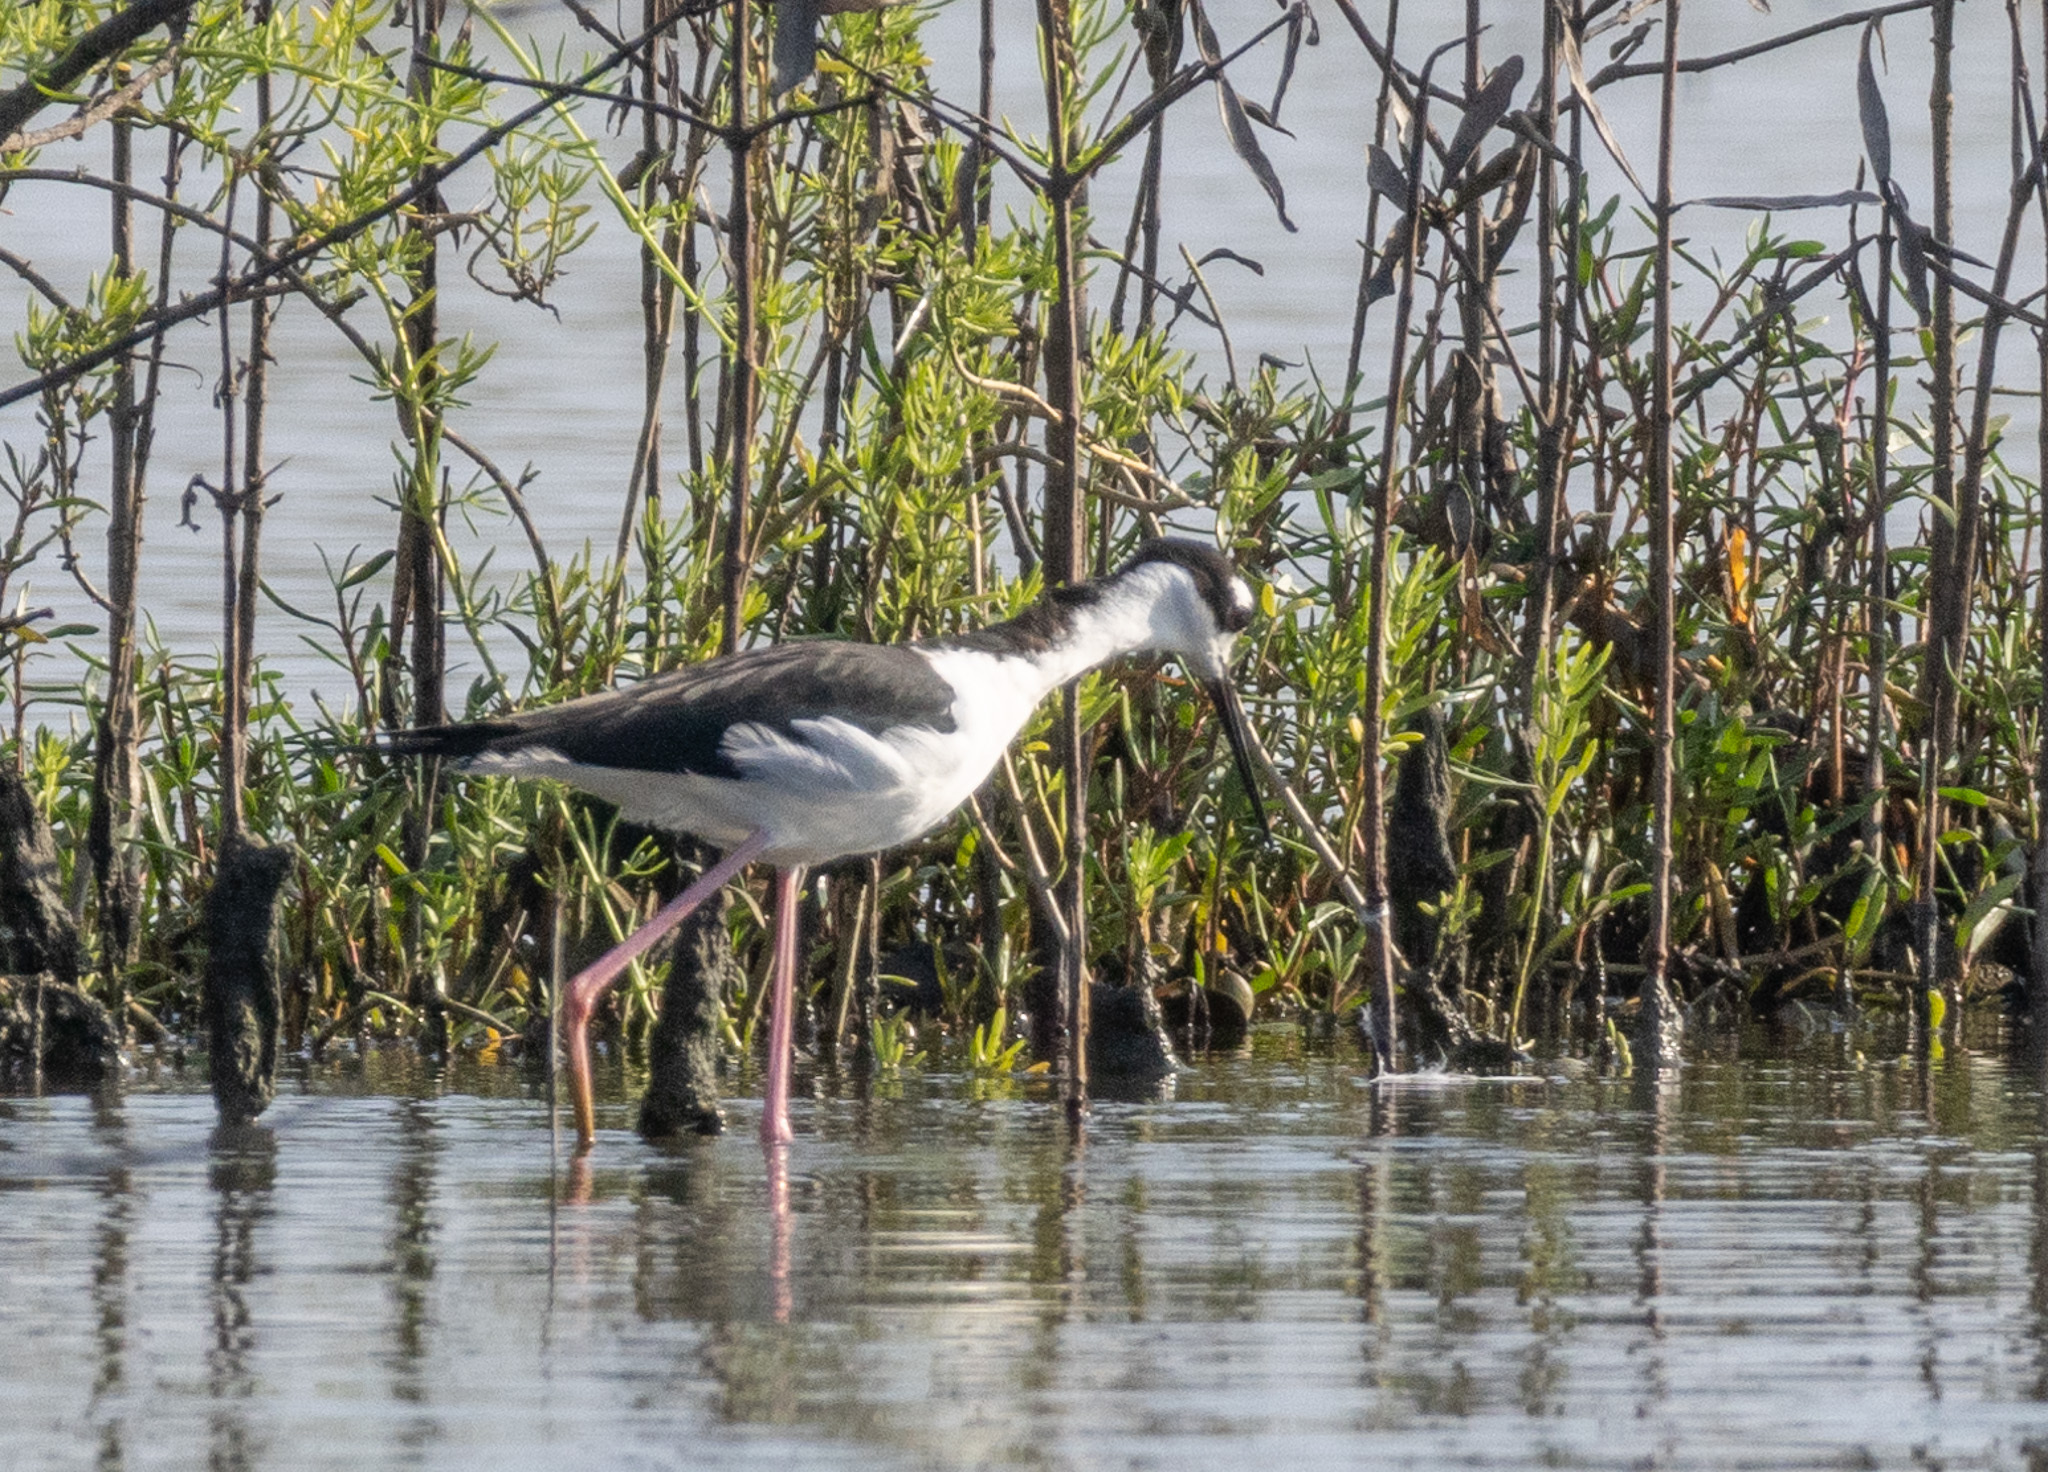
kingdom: Animalia
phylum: Chordata
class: Aves
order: Charadriiformes
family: Recurvirostridae
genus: Himantopus
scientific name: Himantopus mexicanus
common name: Black-necked stilt
